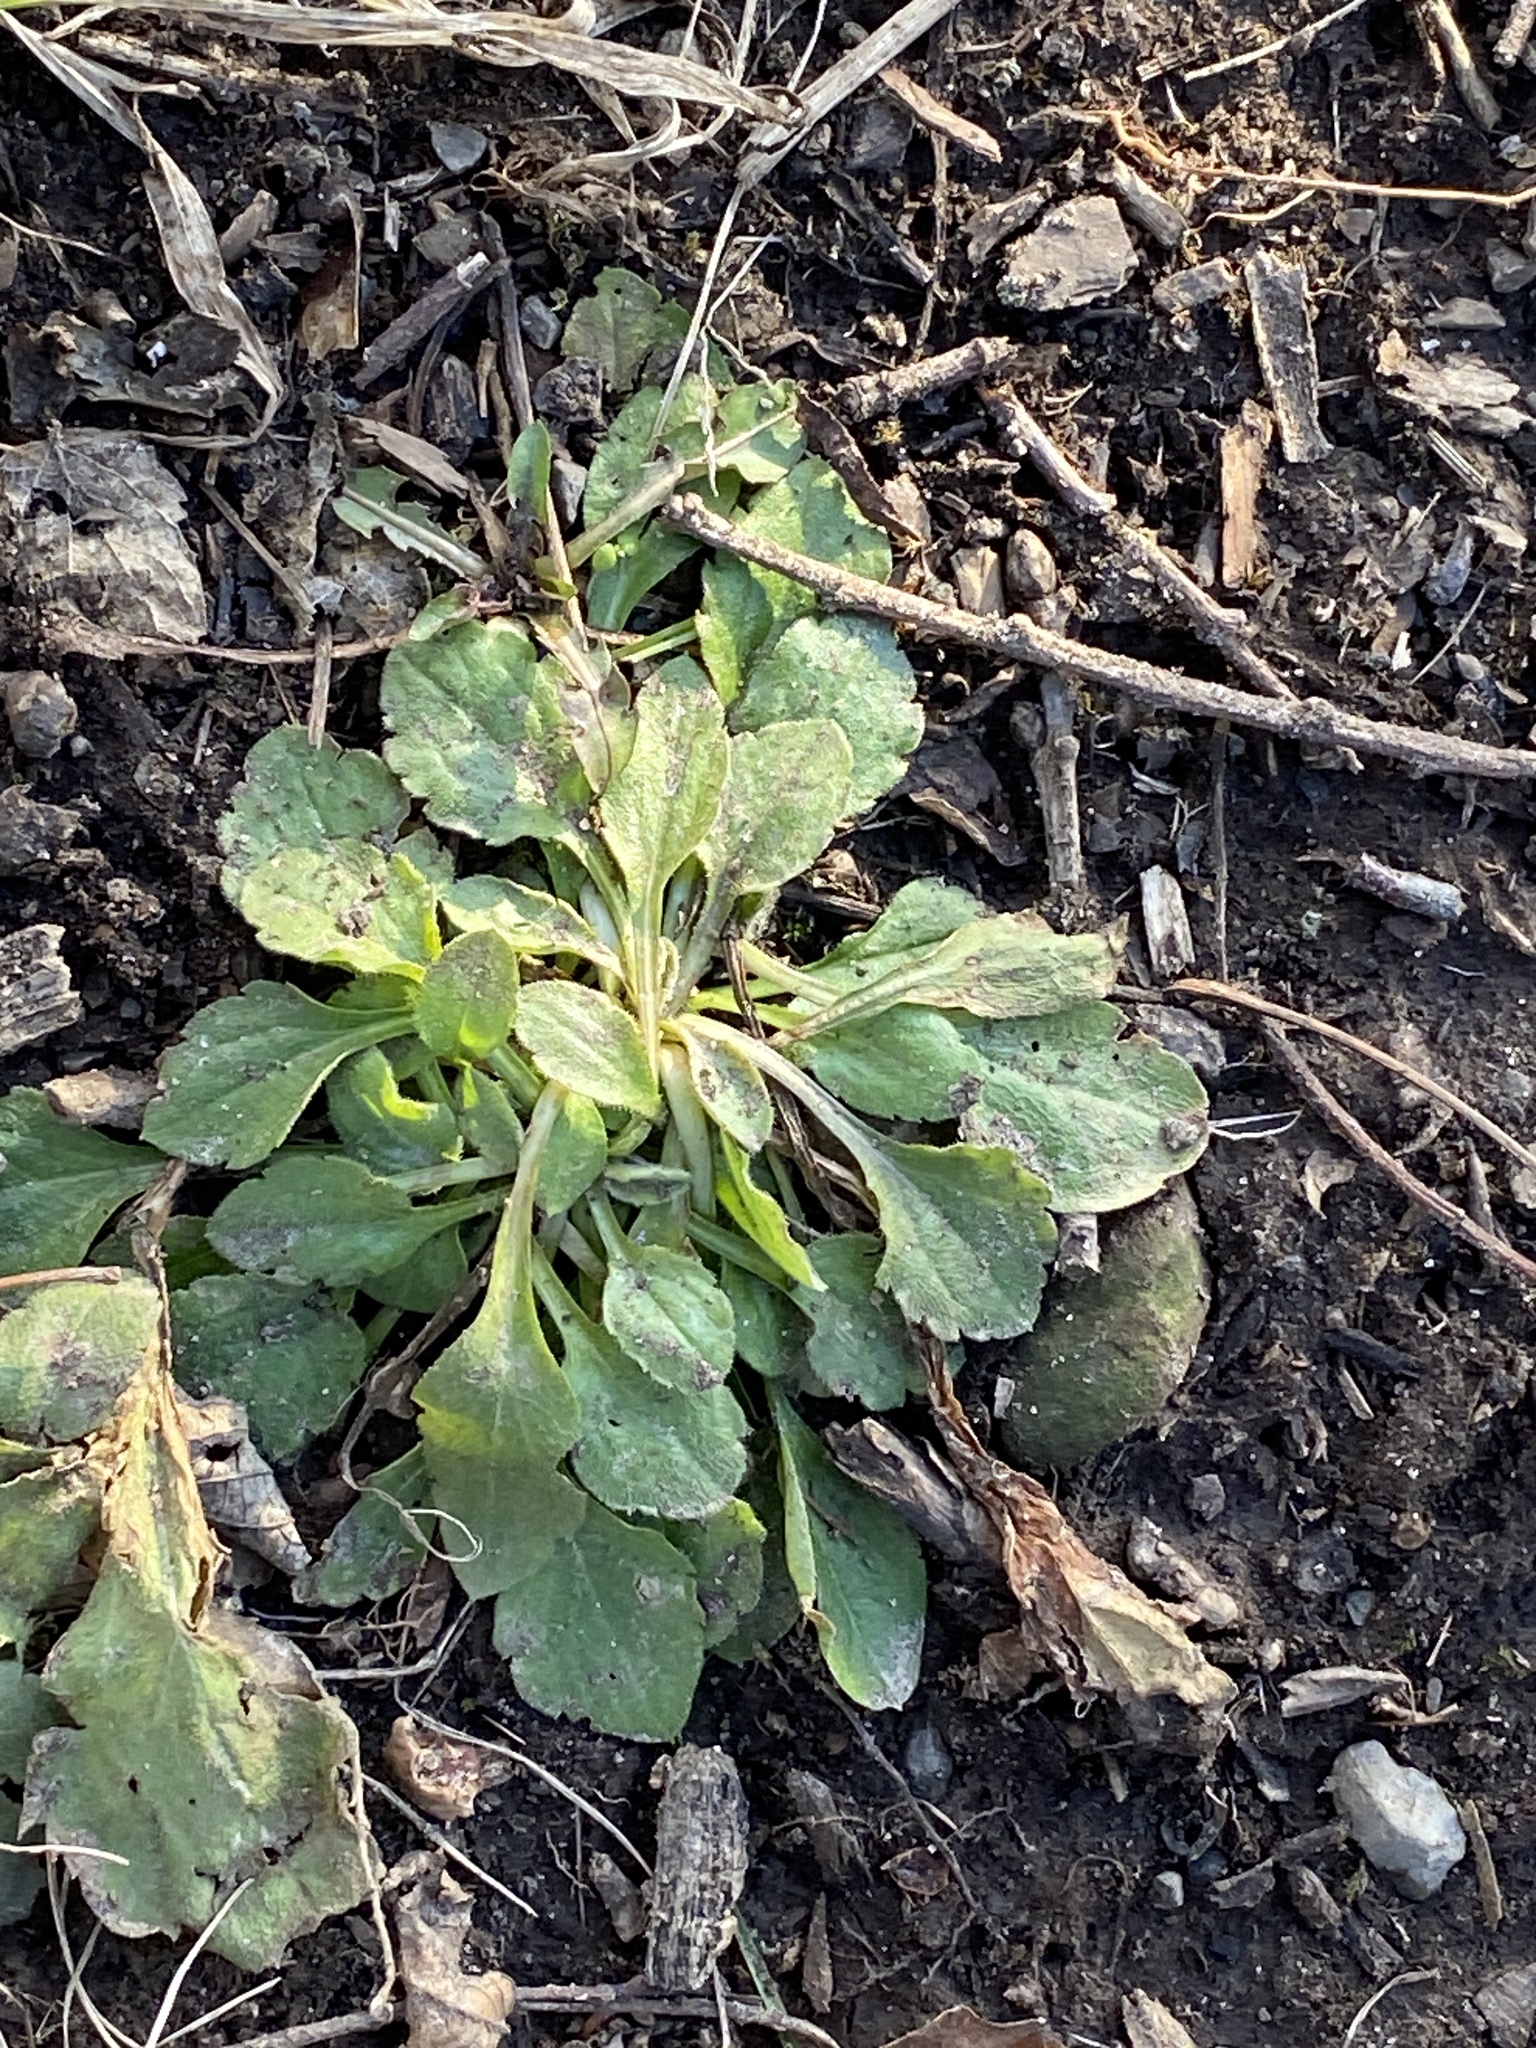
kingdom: Plantae
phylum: Tracheophyta
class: Magnoliopsida
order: Asterales
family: Asteraceae
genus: Erigeron
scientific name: Erigeron annuus
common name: Tall fleabane
